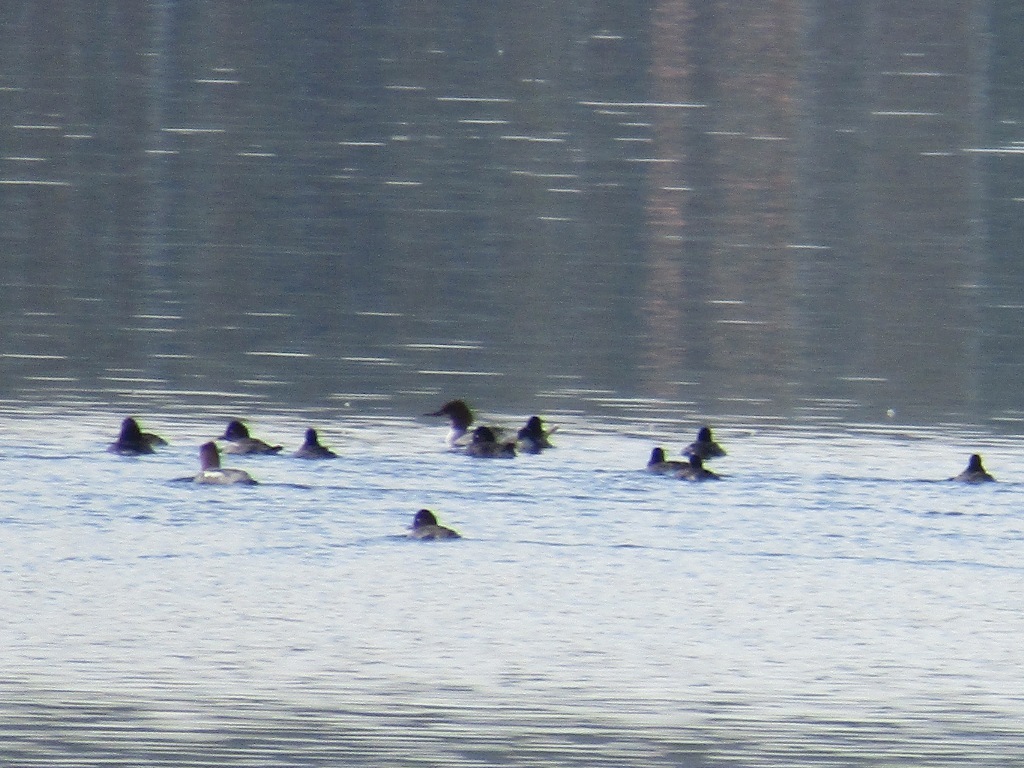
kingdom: Animalia
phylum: Chordata
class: Aves
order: Anseriformes
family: Anatidae
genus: Mergus
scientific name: Mergus merganser
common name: Common merganser
